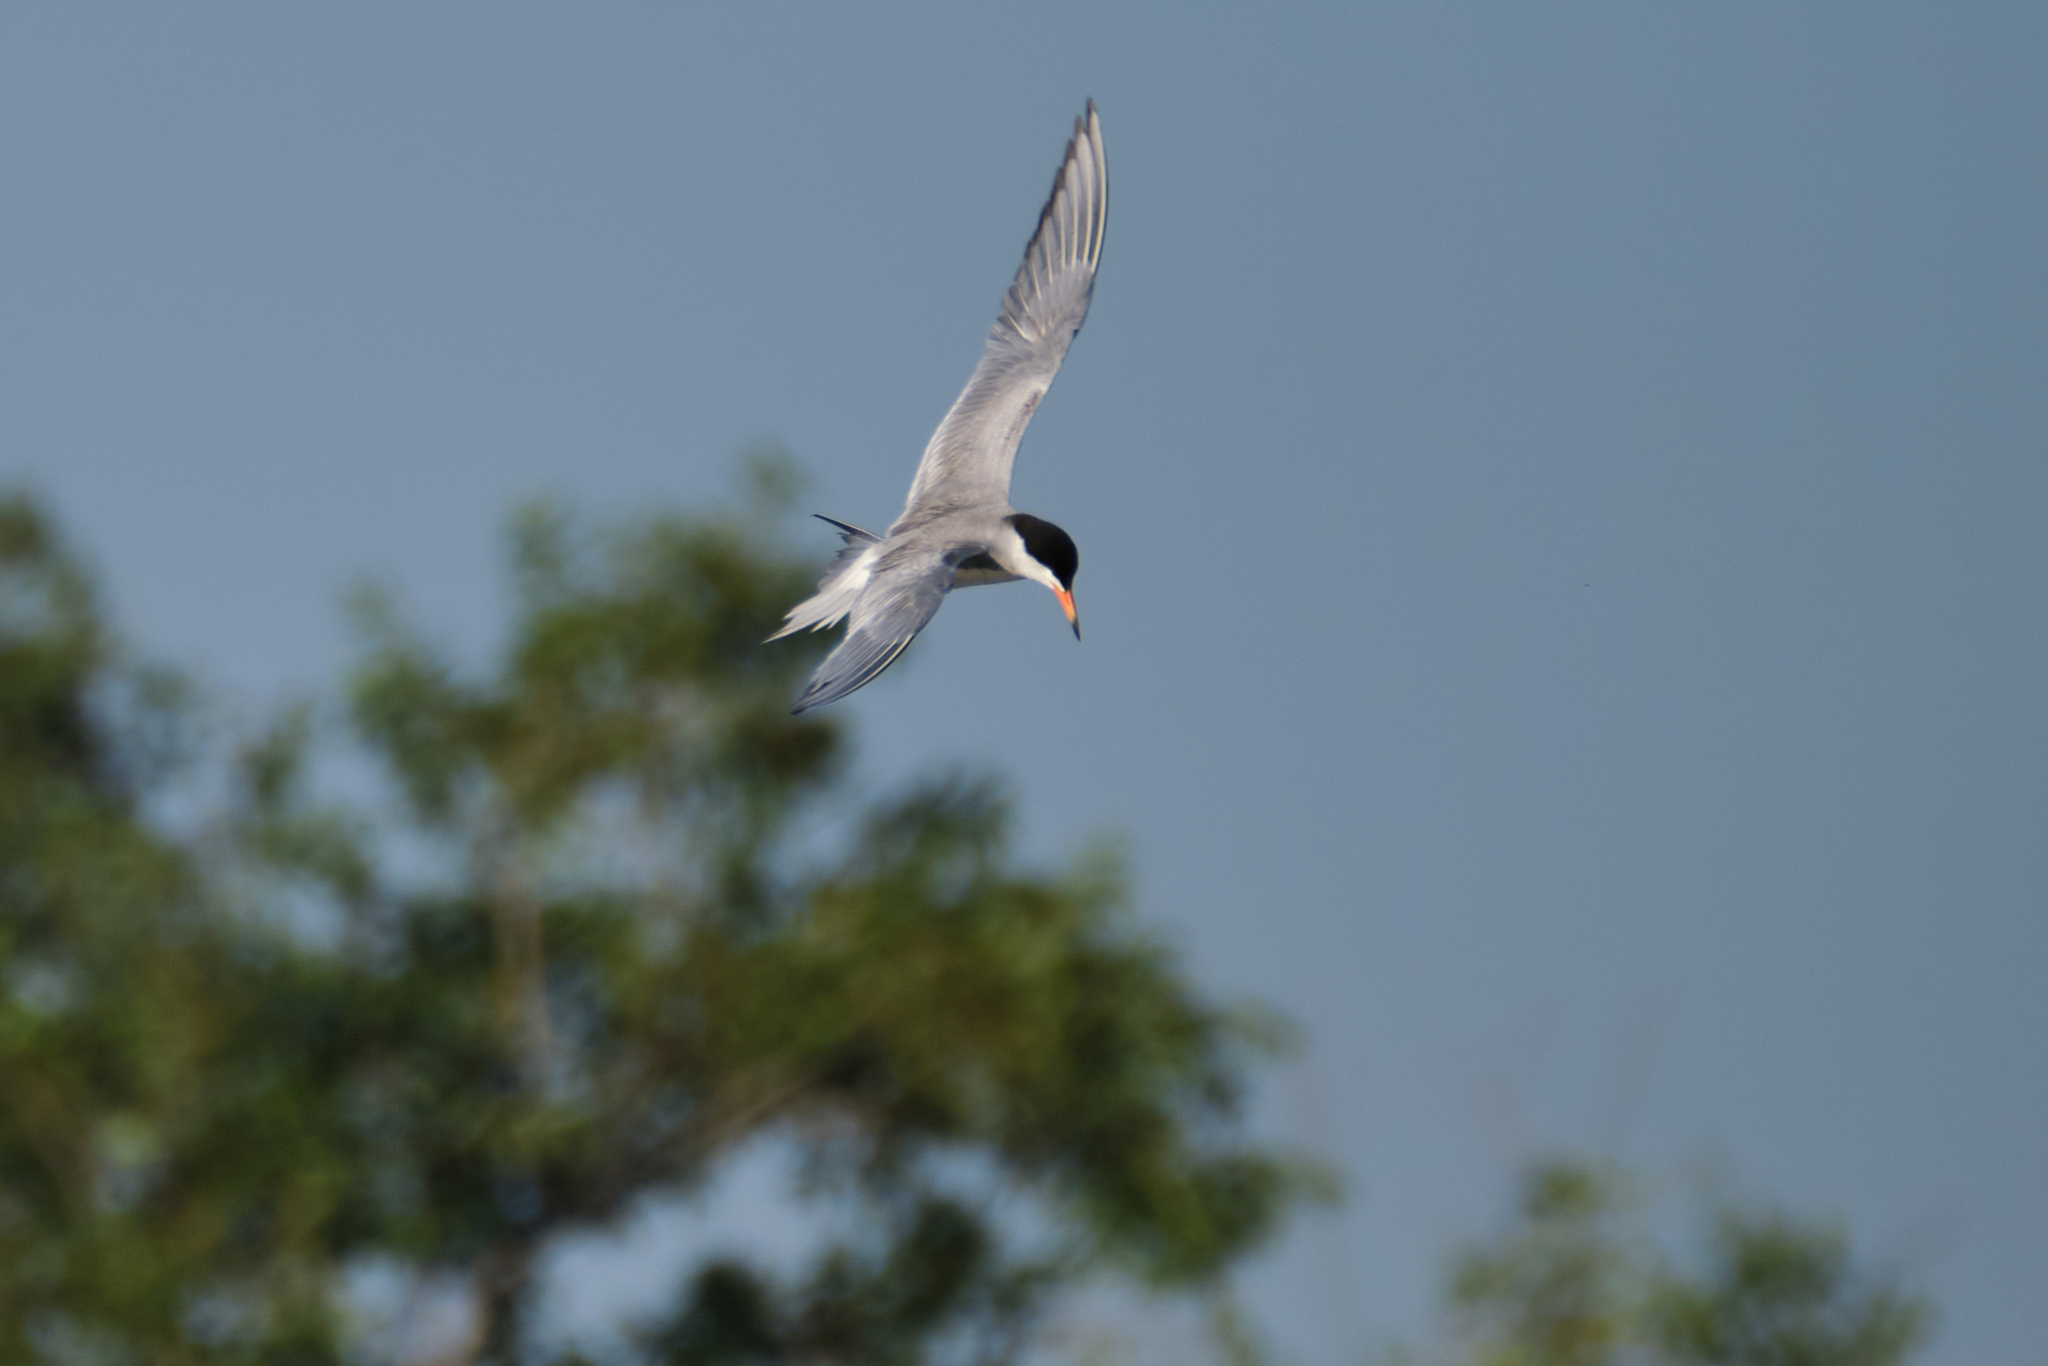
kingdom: Animalia
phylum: Chordata
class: Aves
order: Charadriiformes
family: Laridae
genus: Sterna
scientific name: Sterna forsteri
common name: Forster's tern
